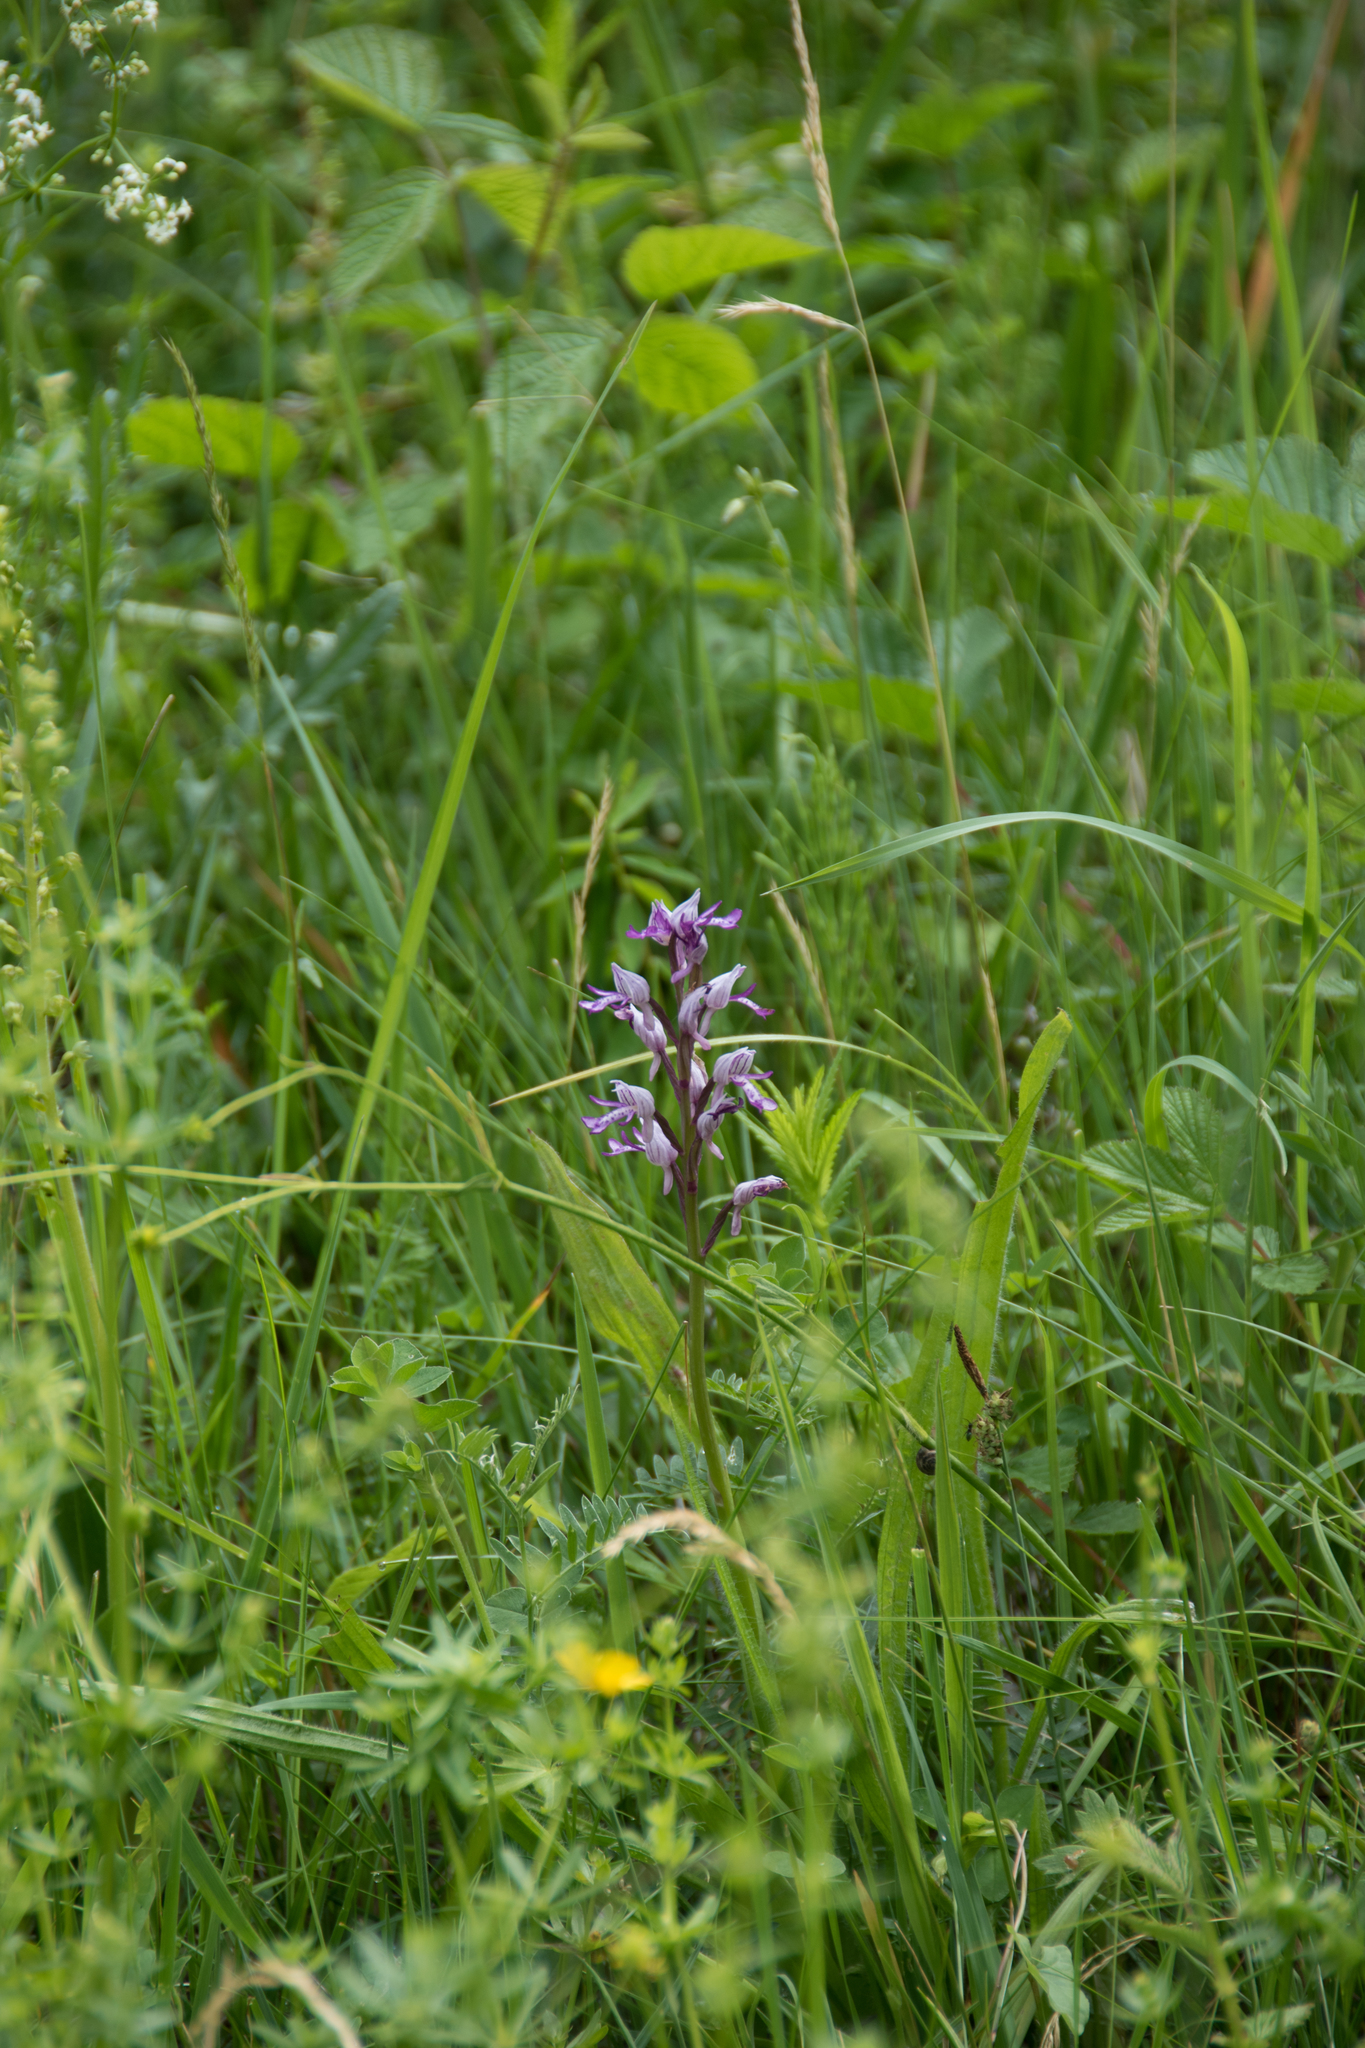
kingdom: Plantae
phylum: Tracheophyta
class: Liliopsida
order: Asparagales
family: Orchidaceae
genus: Orchis
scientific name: Orchis militaris
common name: Military orchid
